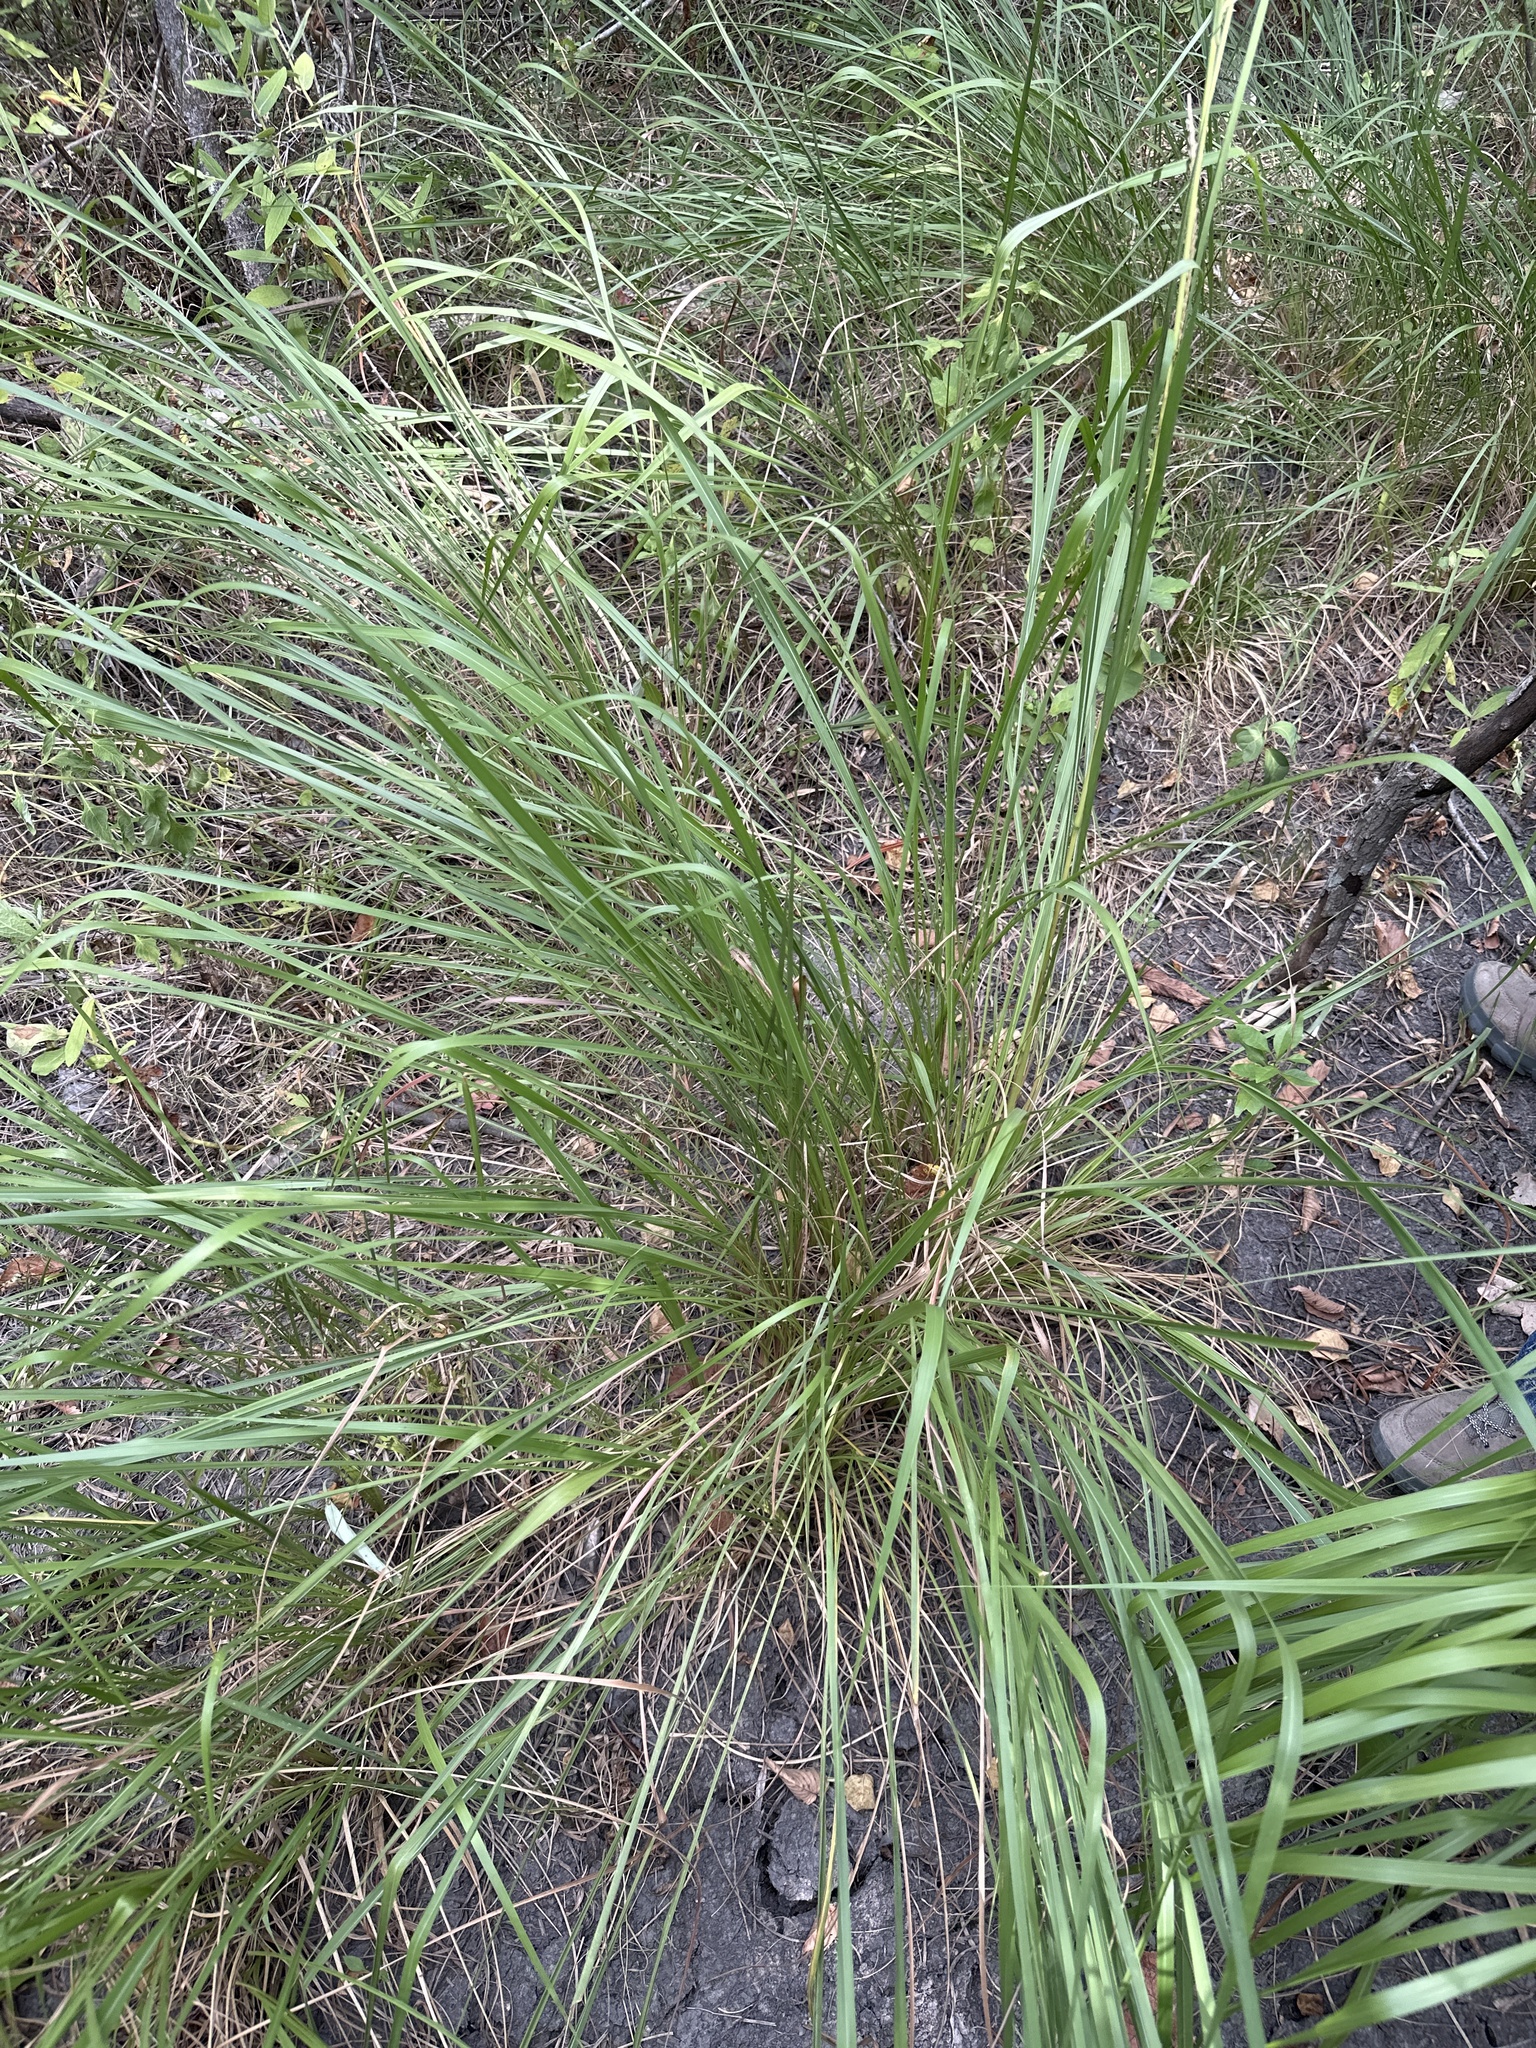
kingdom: Plantae
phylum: Tracheophyta
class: Liliopsida
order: Poales
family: Poaceae
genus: Tripsacum
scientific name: Tripsacum dactyloides
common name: Buffalo-grass
